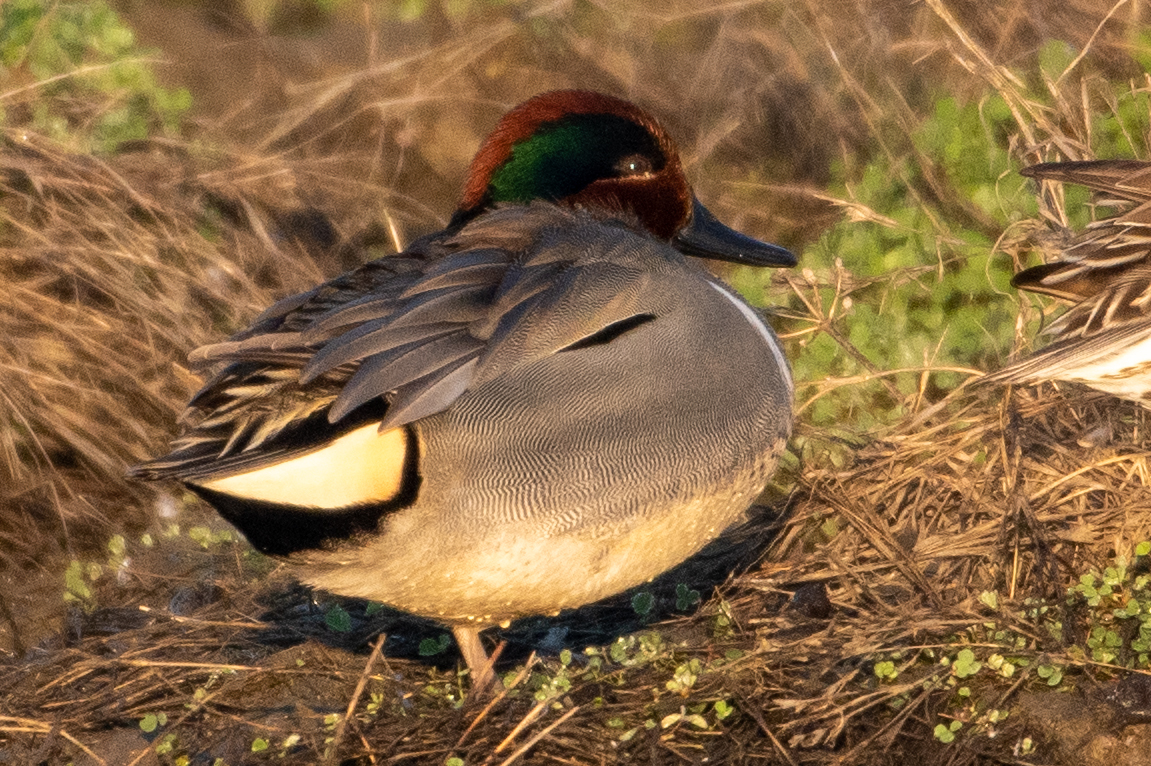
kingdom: Animalia
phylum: Chordata
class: Aves
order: Anseriformes
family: Anatidae
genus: Anas
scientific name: Anas crecca
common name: Eurasian teal
